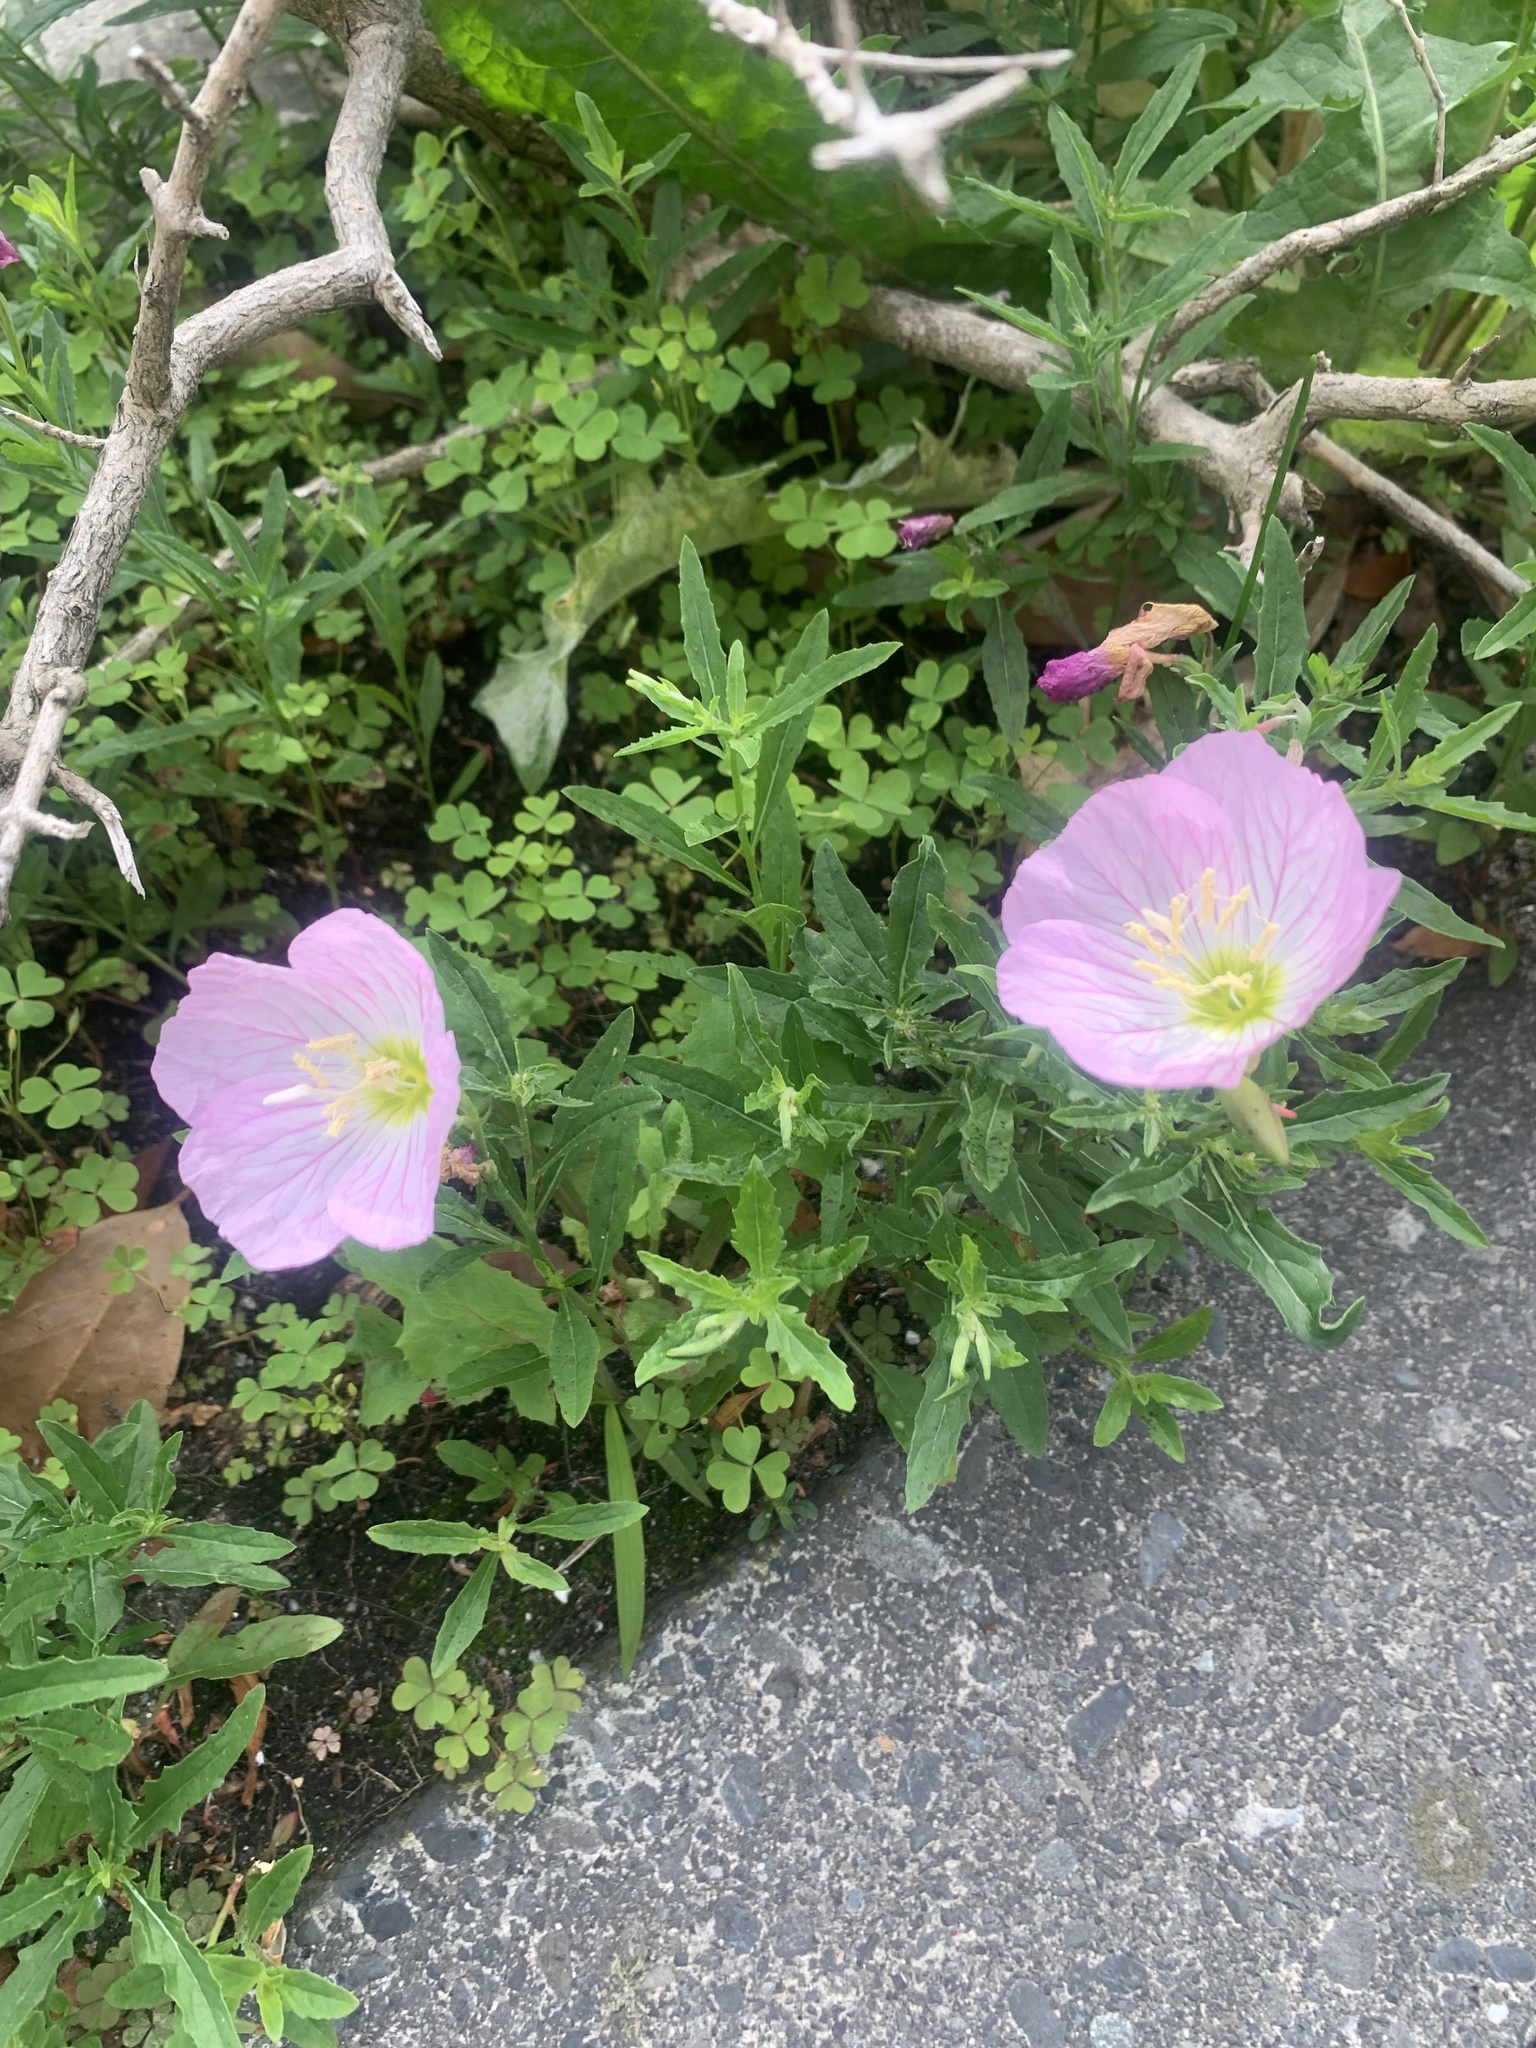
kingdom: Plantae
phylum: Tracheophyta
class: Magnoliopsida
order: Myrtales
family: Onagraceae
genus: Oenothera
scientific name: Oenothera speciosa
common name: White evening-primrose
